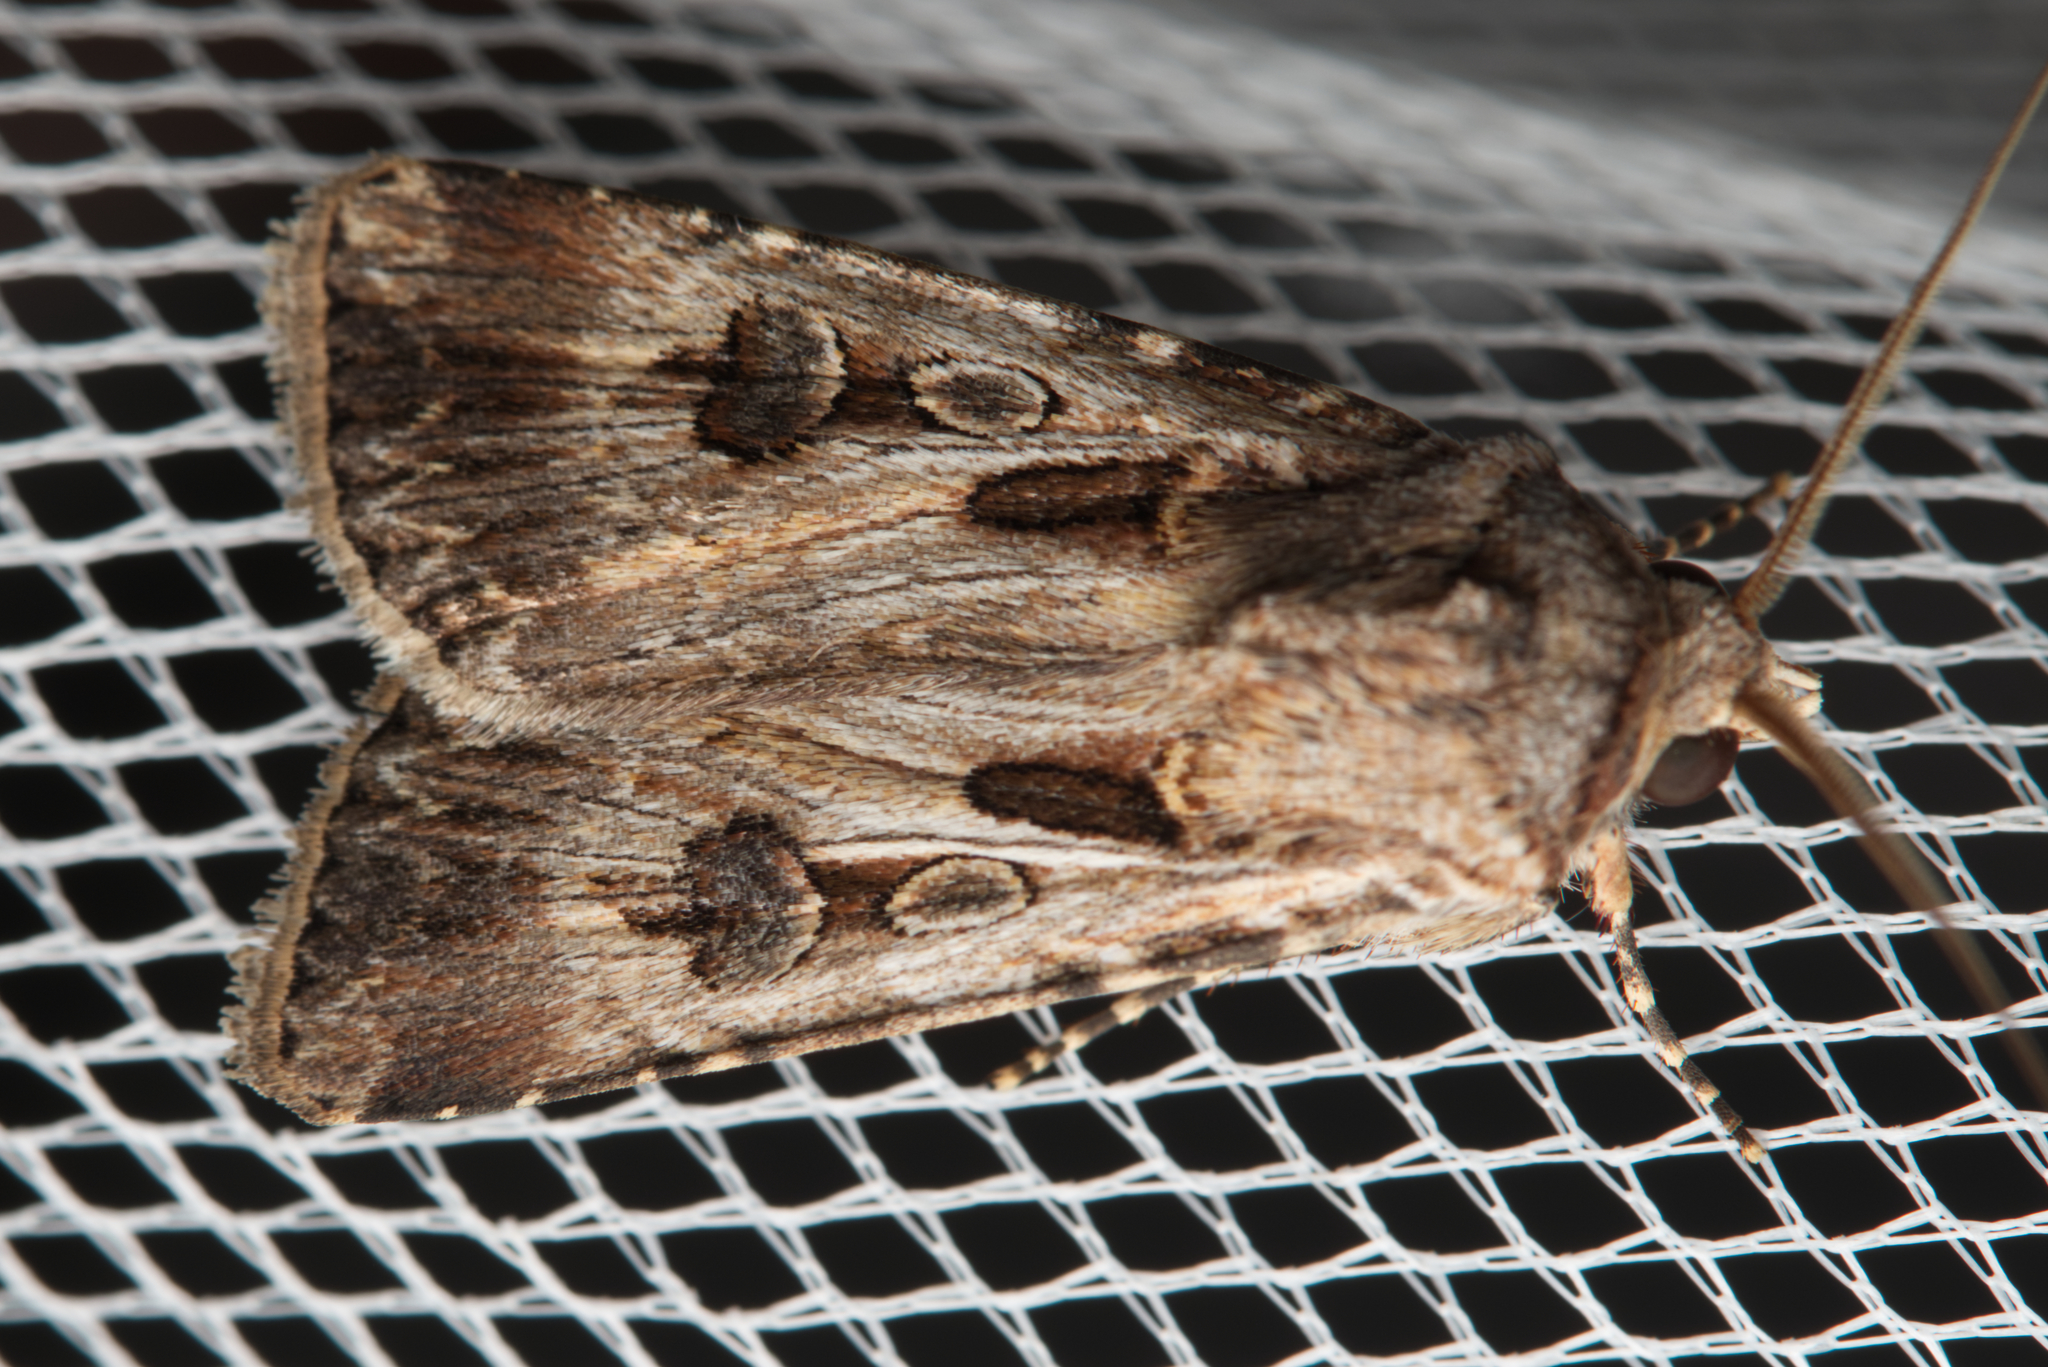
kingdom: Animalia
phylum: Arthropoda
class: Insecta
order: Lepidoptera
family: Noctuidae
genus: Agrotis
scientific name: Agrotis munda
